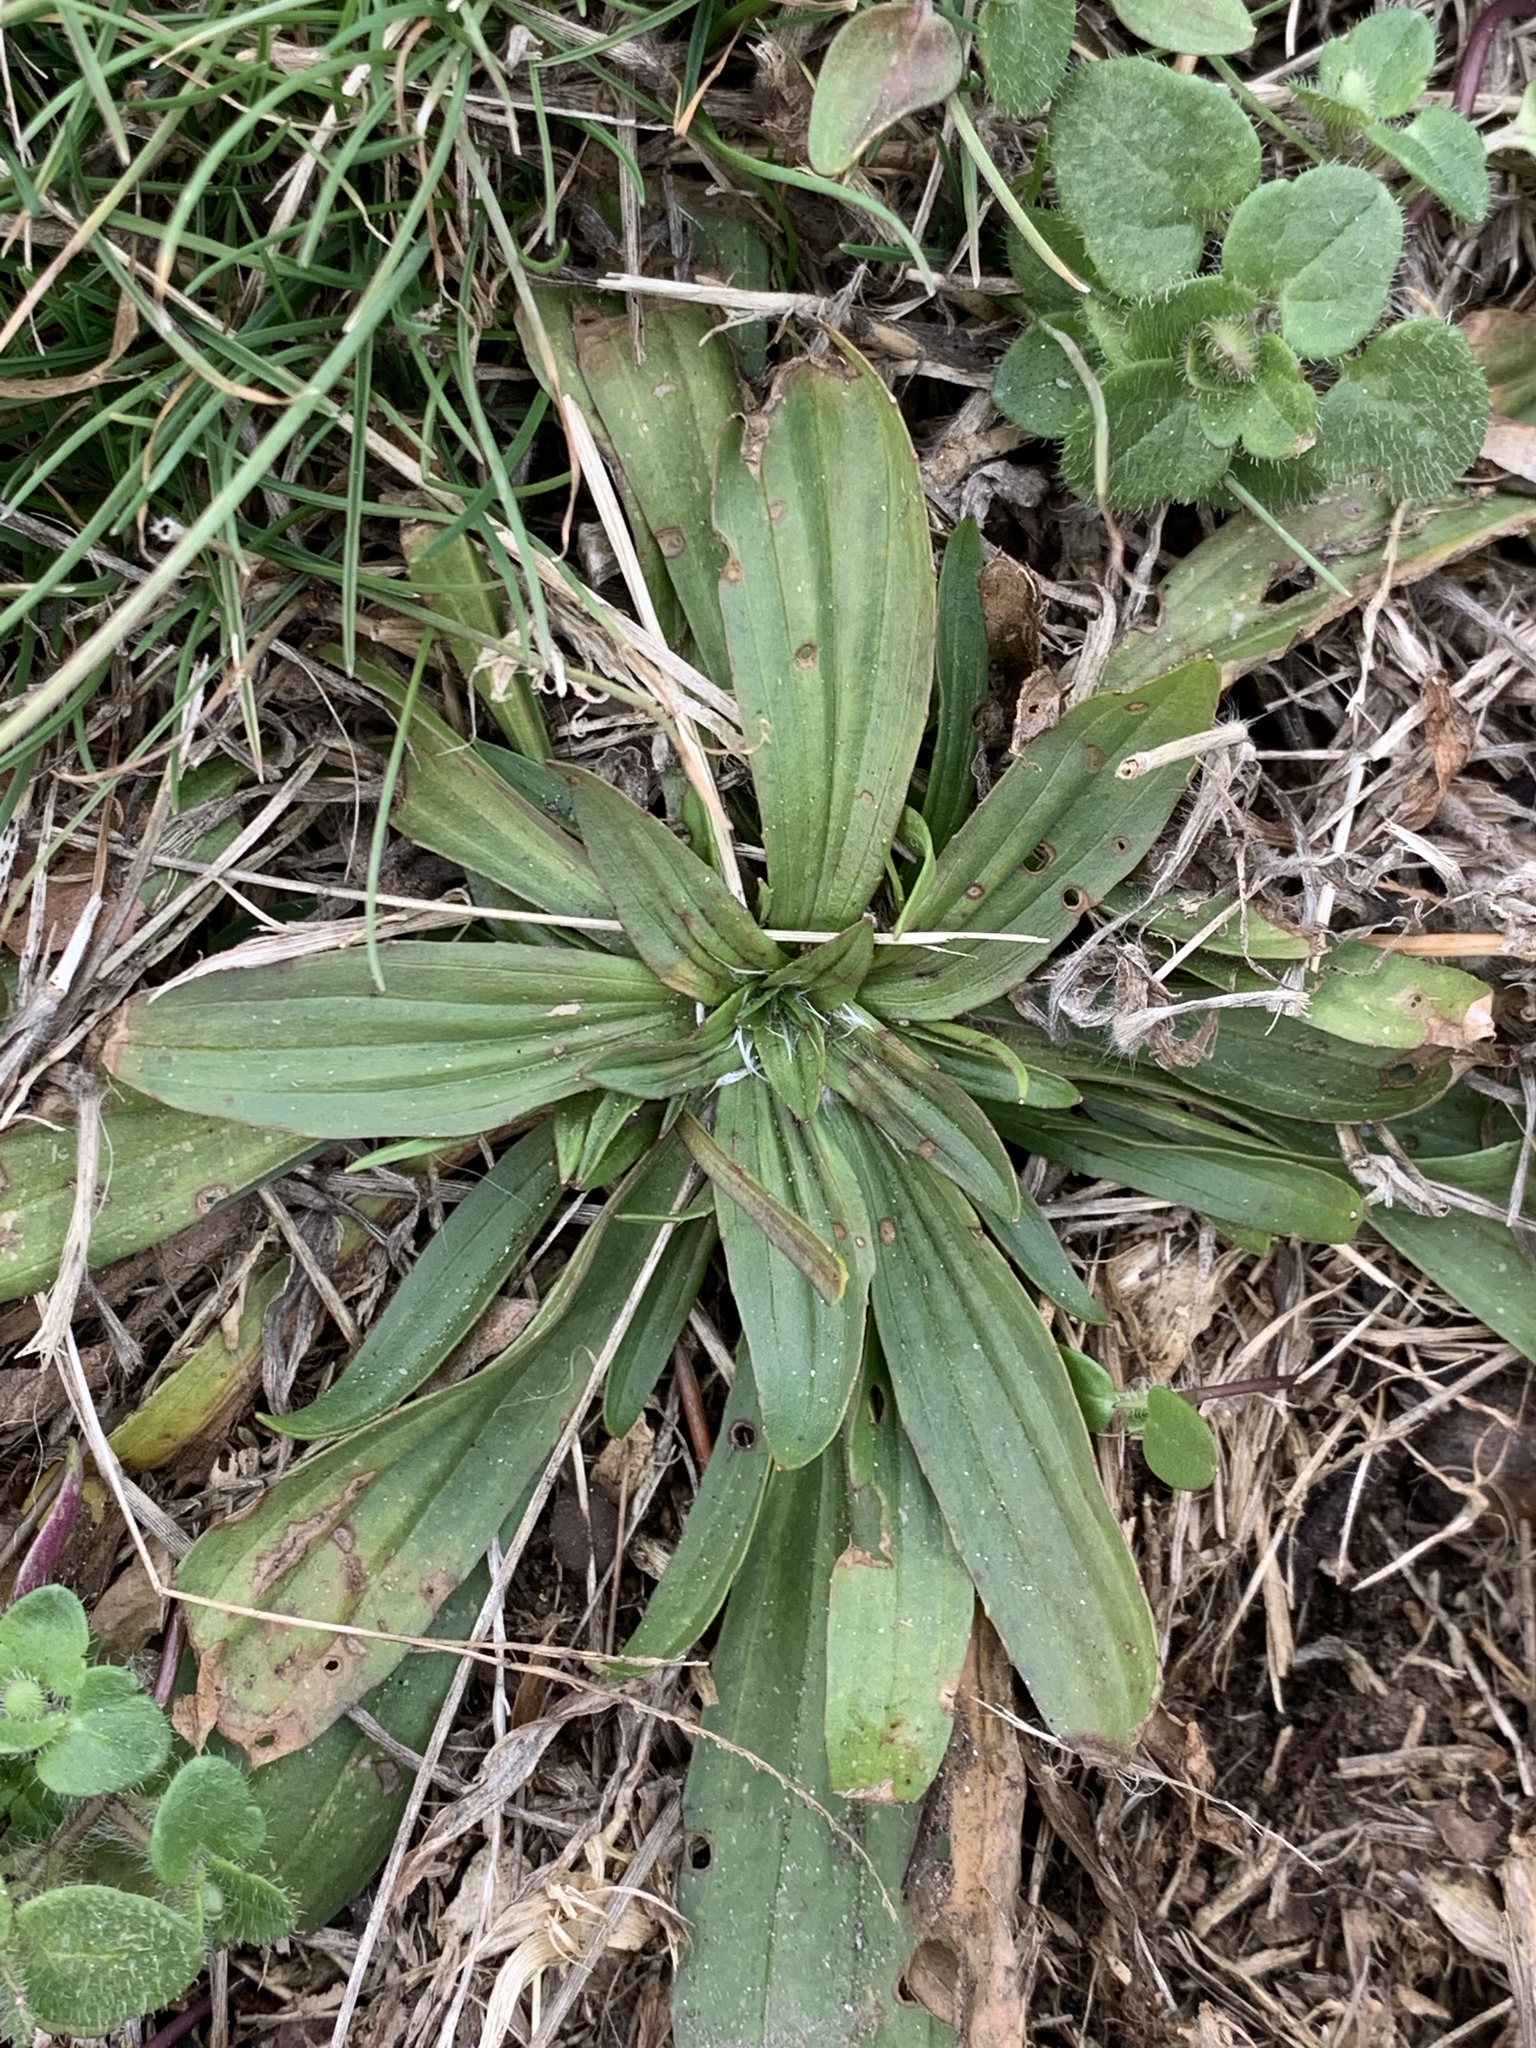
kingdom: Plantae
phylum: Tracheophyta
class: Magnoliopsida
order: Lamiales
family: Plantaginaceae
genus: Plantago
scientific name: Plantago lanceolata
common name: Ribwort plantain
